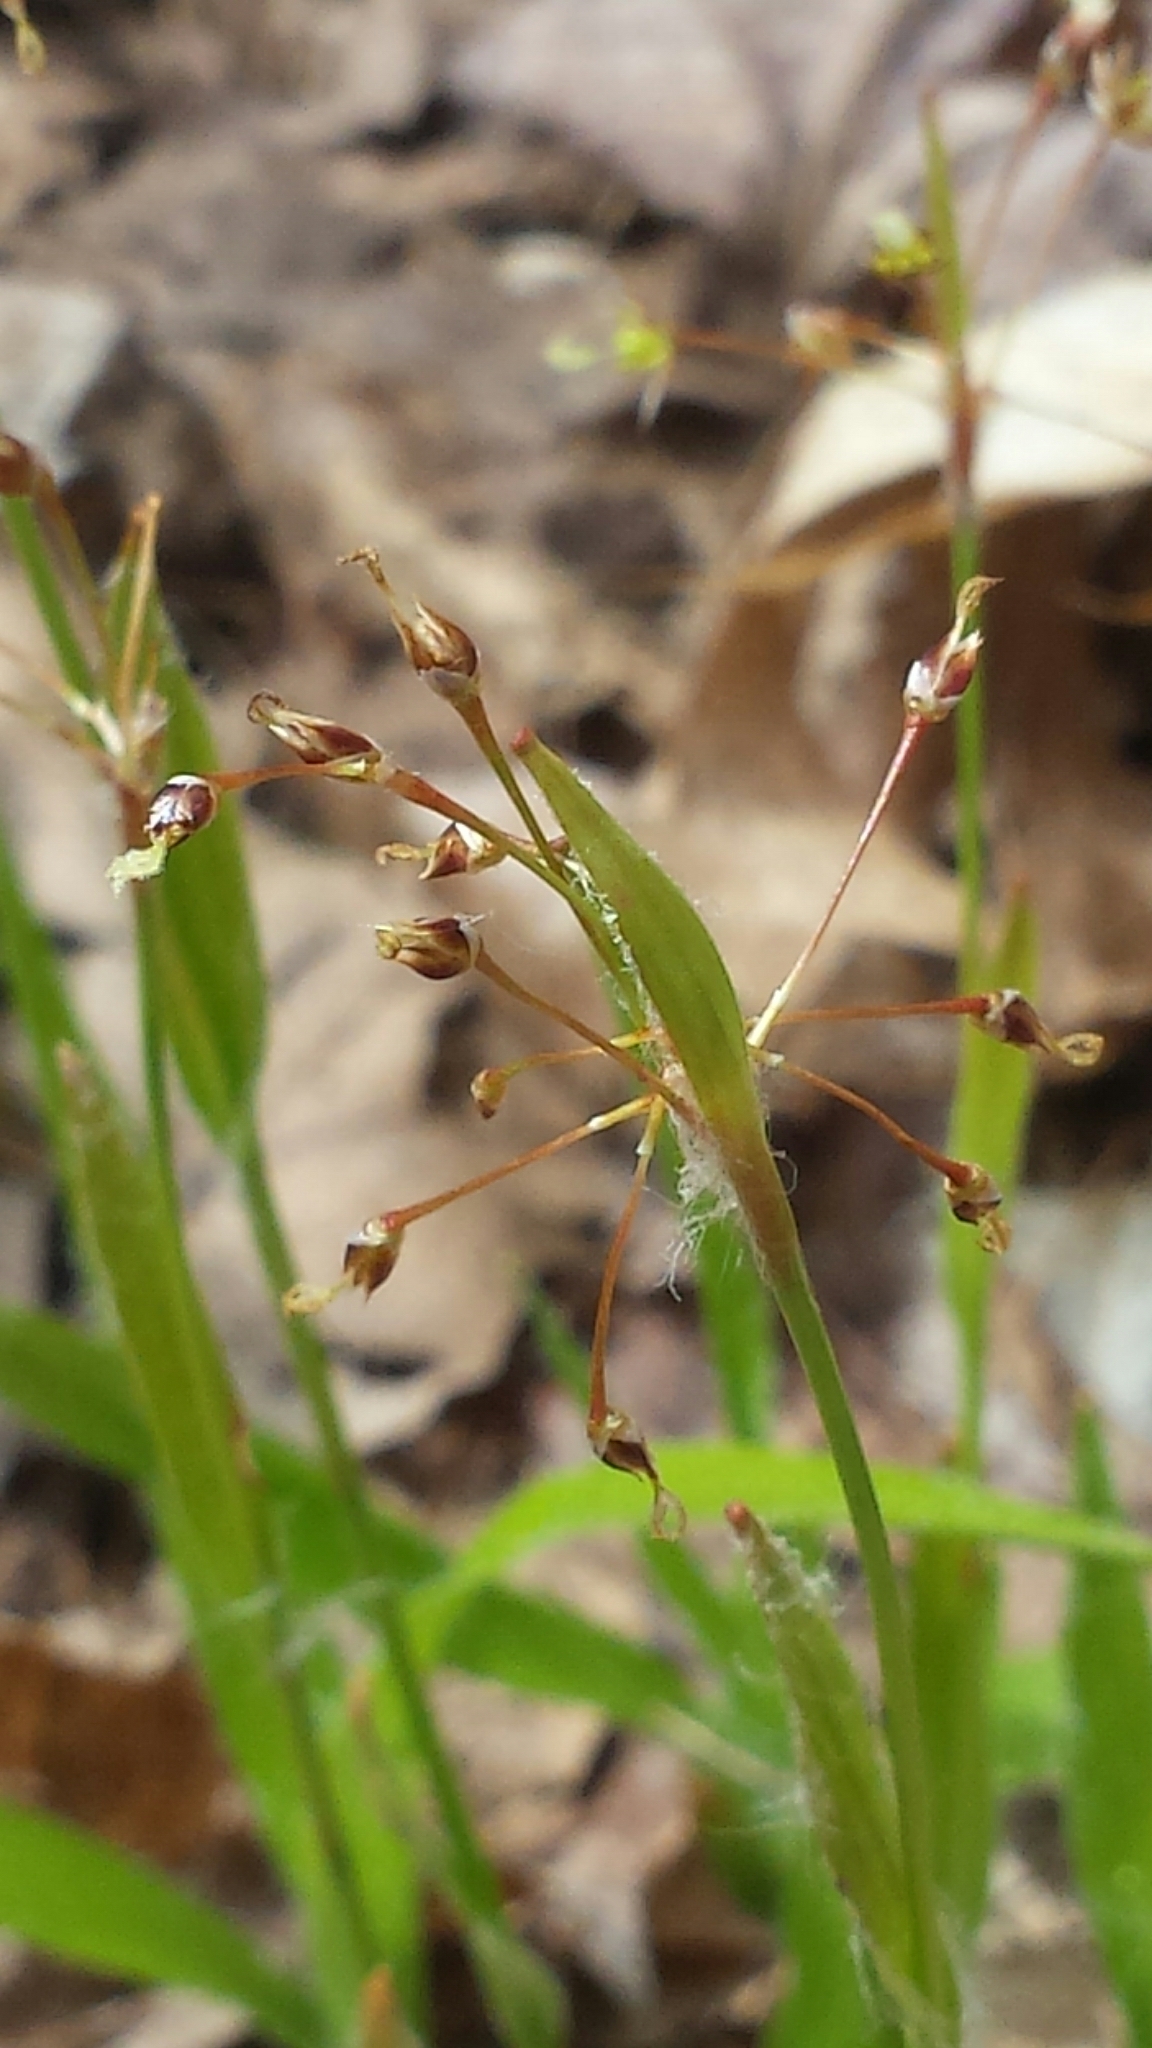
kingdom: Plantae
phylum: Tracheophyta
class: Liliopsida
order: Poales
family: Juncaceae
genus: Luzula
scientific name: Luzula acuminata
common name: Hairy woodrush
